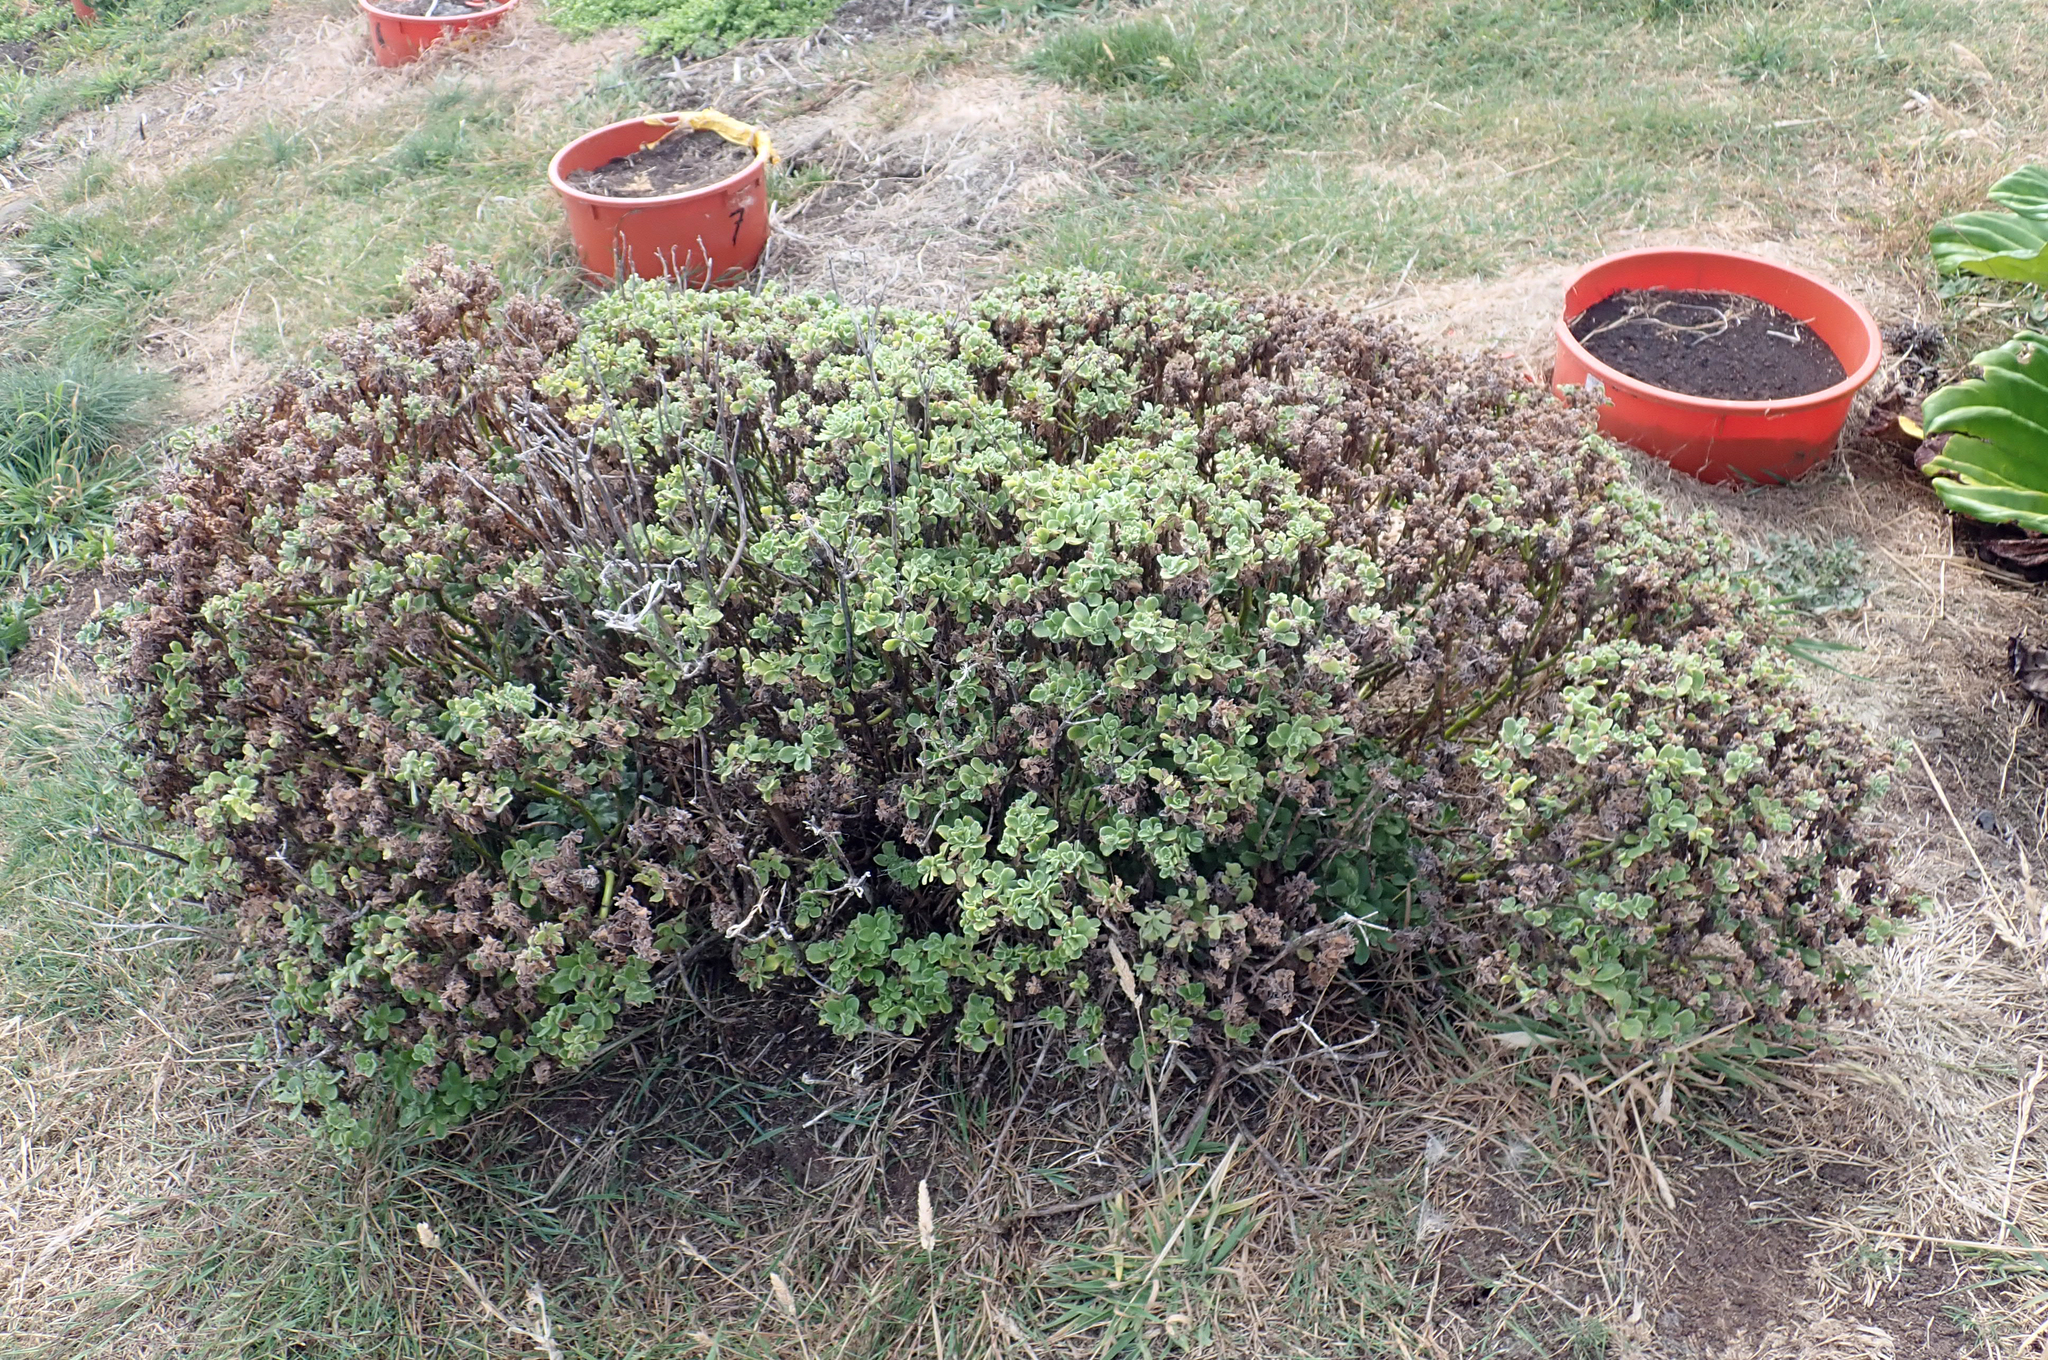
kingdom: Plantae
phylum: Tracheophyta
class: Magnoliopsida
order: Asterales
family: Asteraceae
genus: Leptinella
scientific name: Leptinella featherstonii
